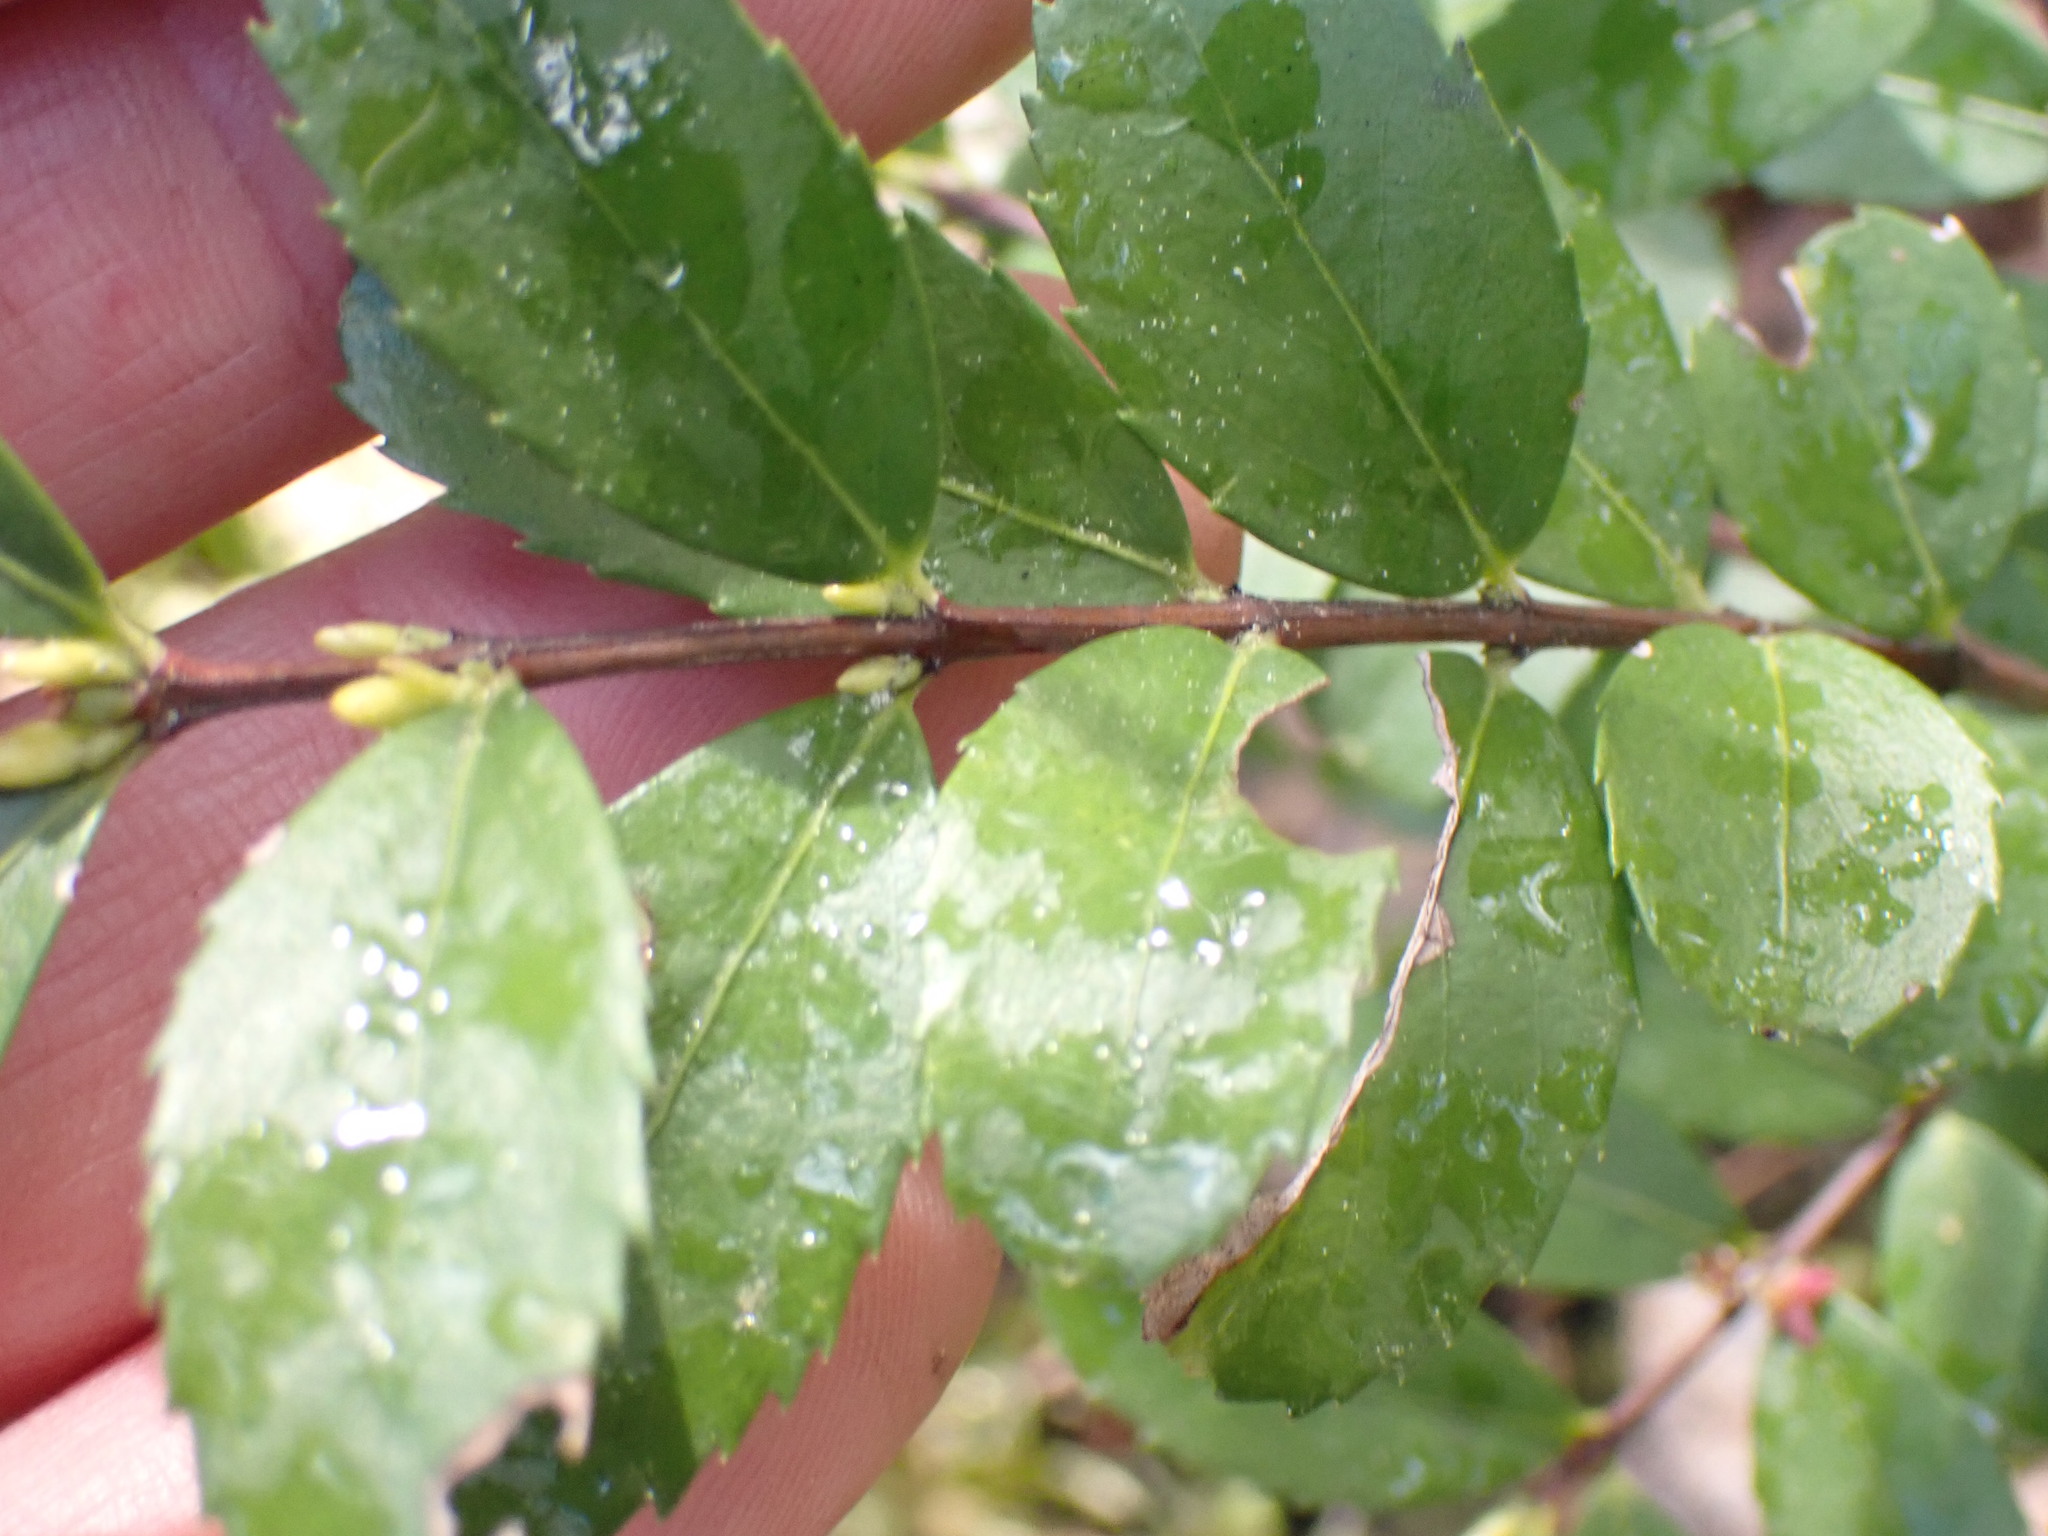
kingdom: Plantae
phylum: Tracheophyta
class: Magnoliopsida
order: Celastrales
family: Celastraceae
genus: Paxistima
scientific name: Paxistima myrsinites
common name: Mountain-lover
